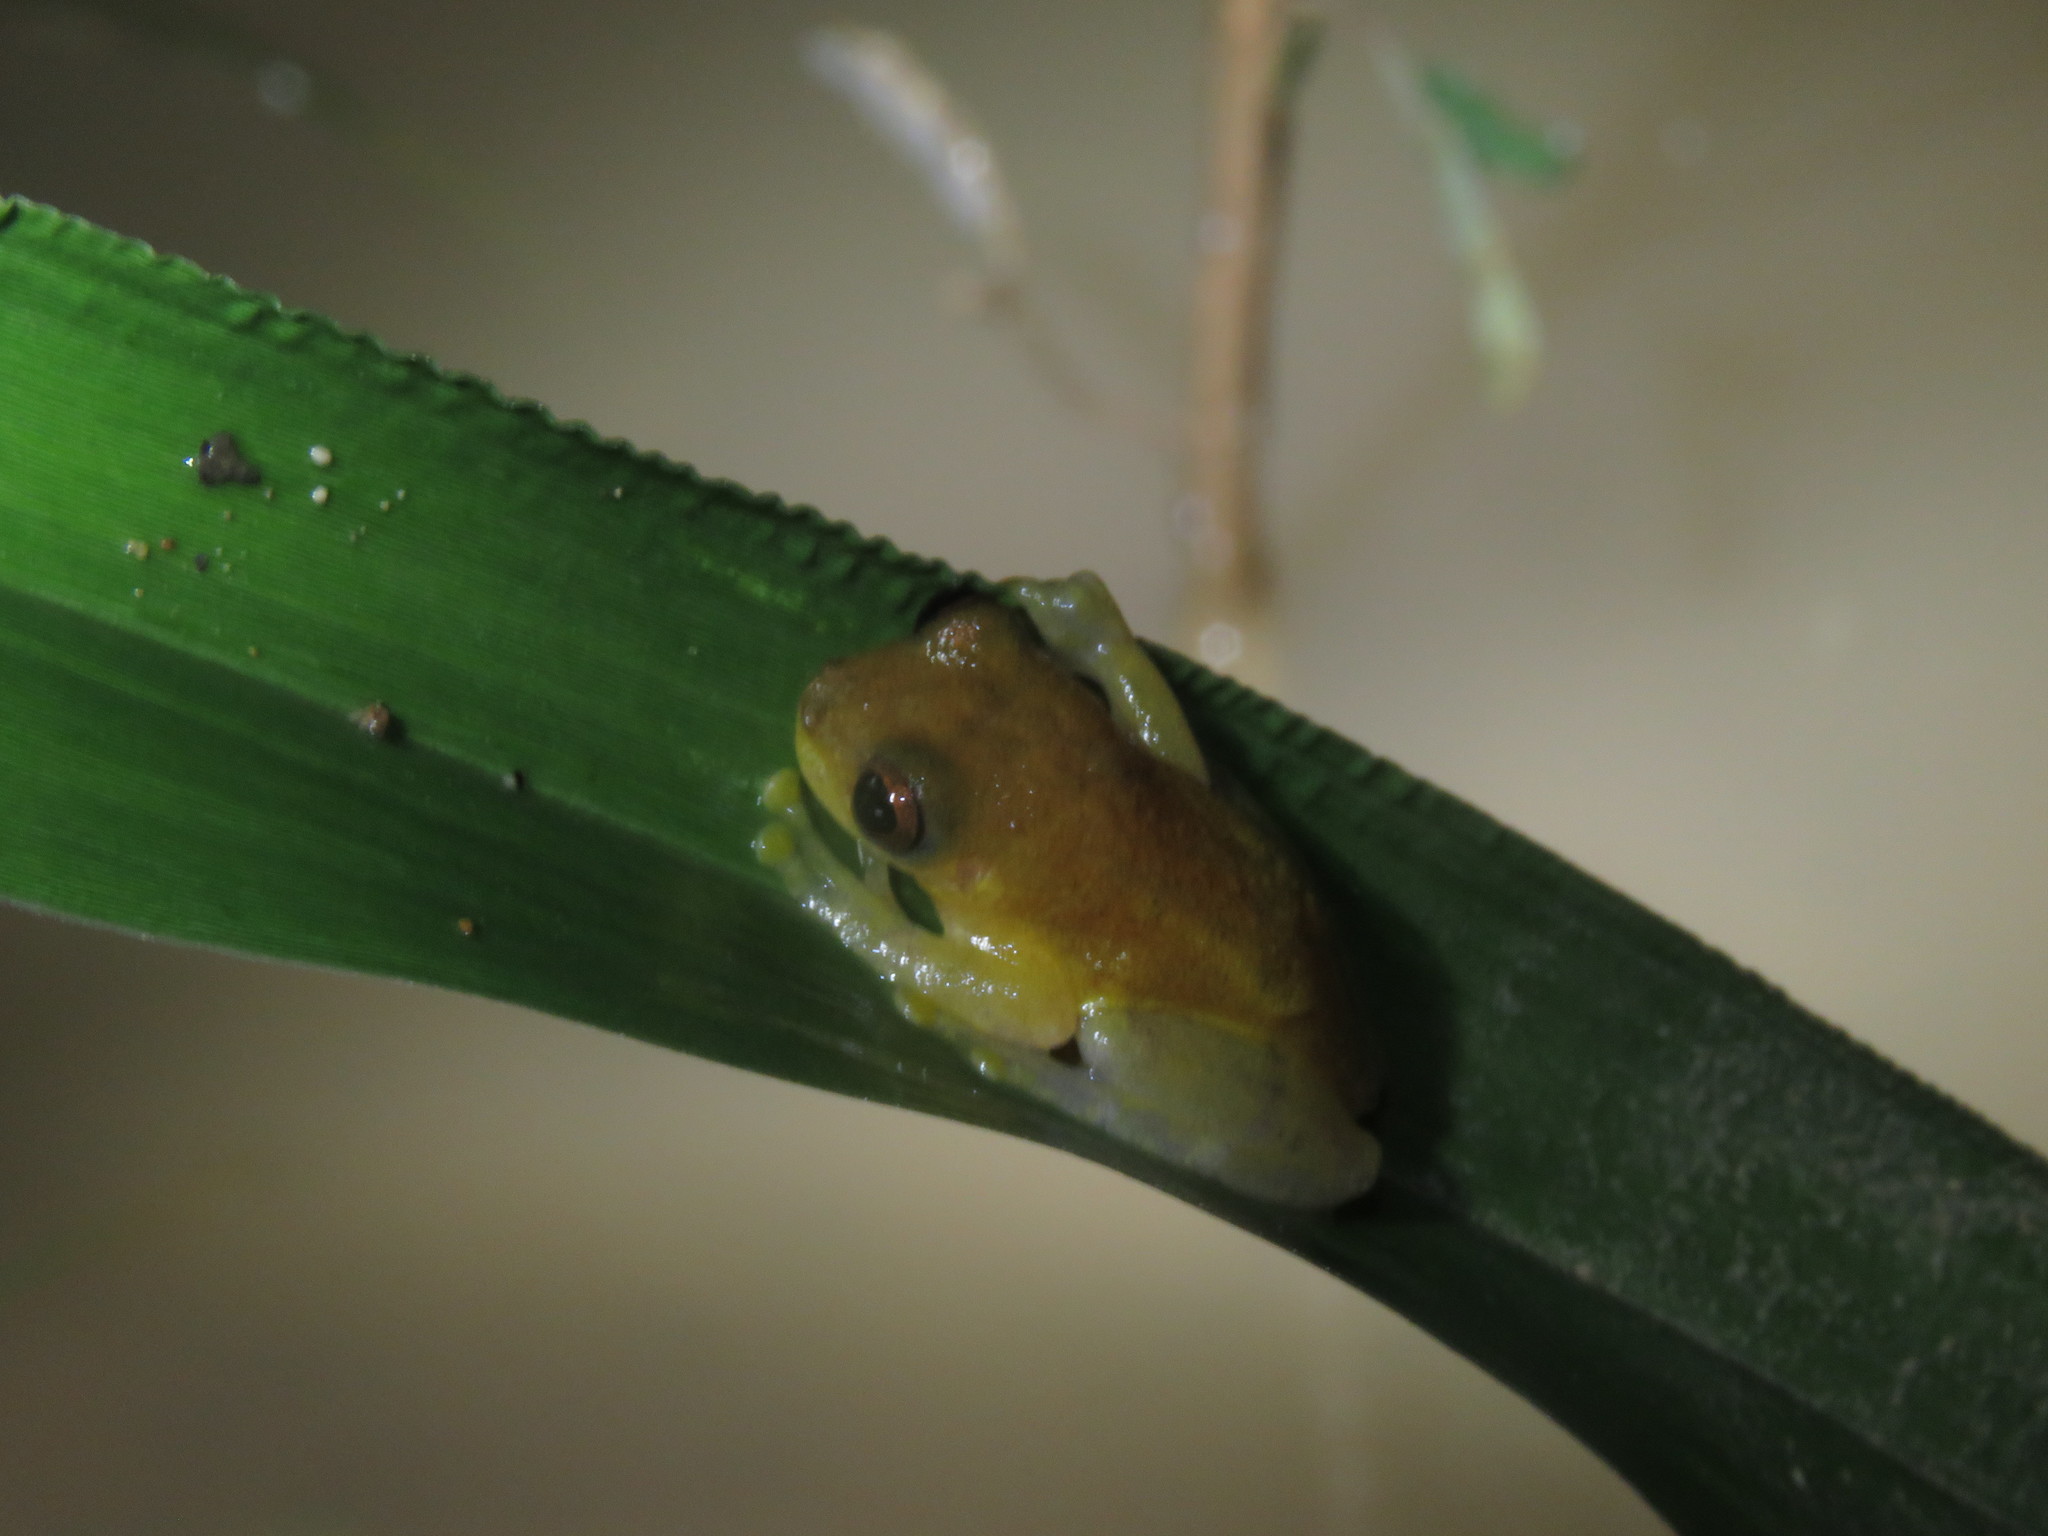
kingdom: Animalia
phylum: Chordata
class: Amphibia
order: Anura
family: Hylidae
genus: Dendropsophus
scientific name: Dendropsophus leali
